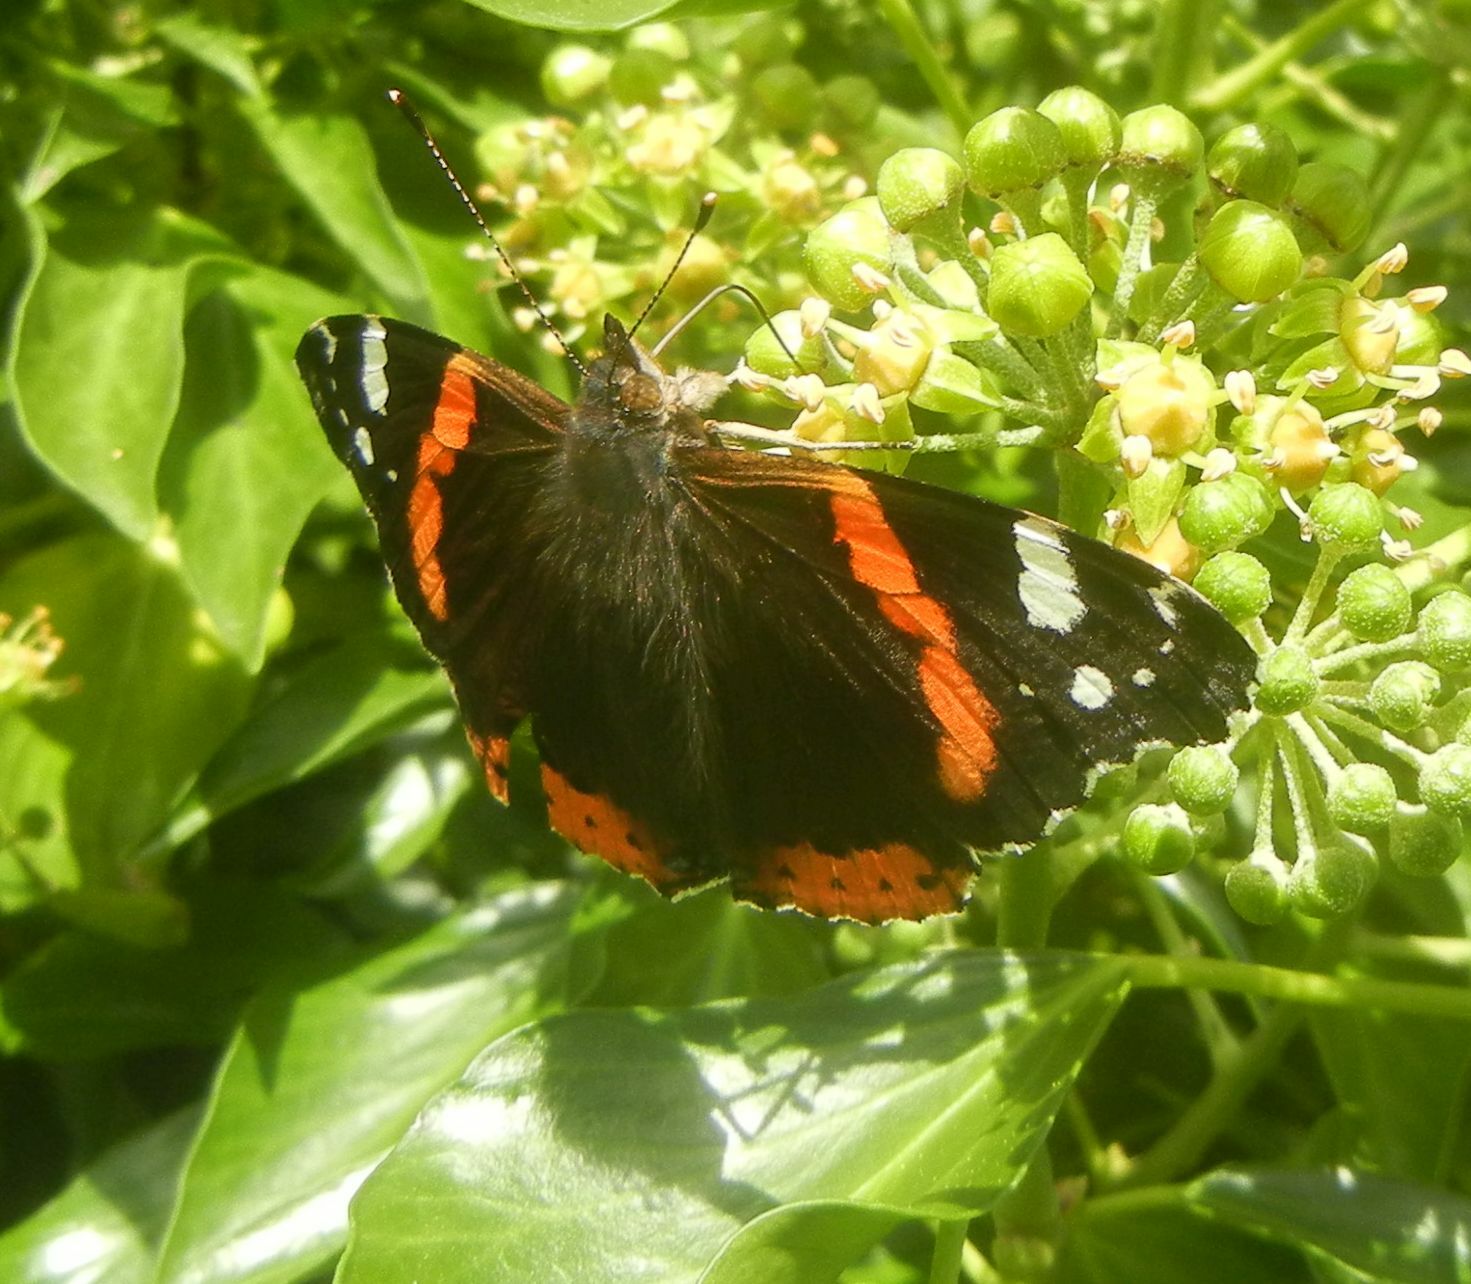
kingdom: Animalia
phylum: Arthropoda
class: Insecta
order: Lepidoptera
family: Nymphalidae
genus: Vanessa
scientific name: Vanessa atalanta
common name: Red admiral
